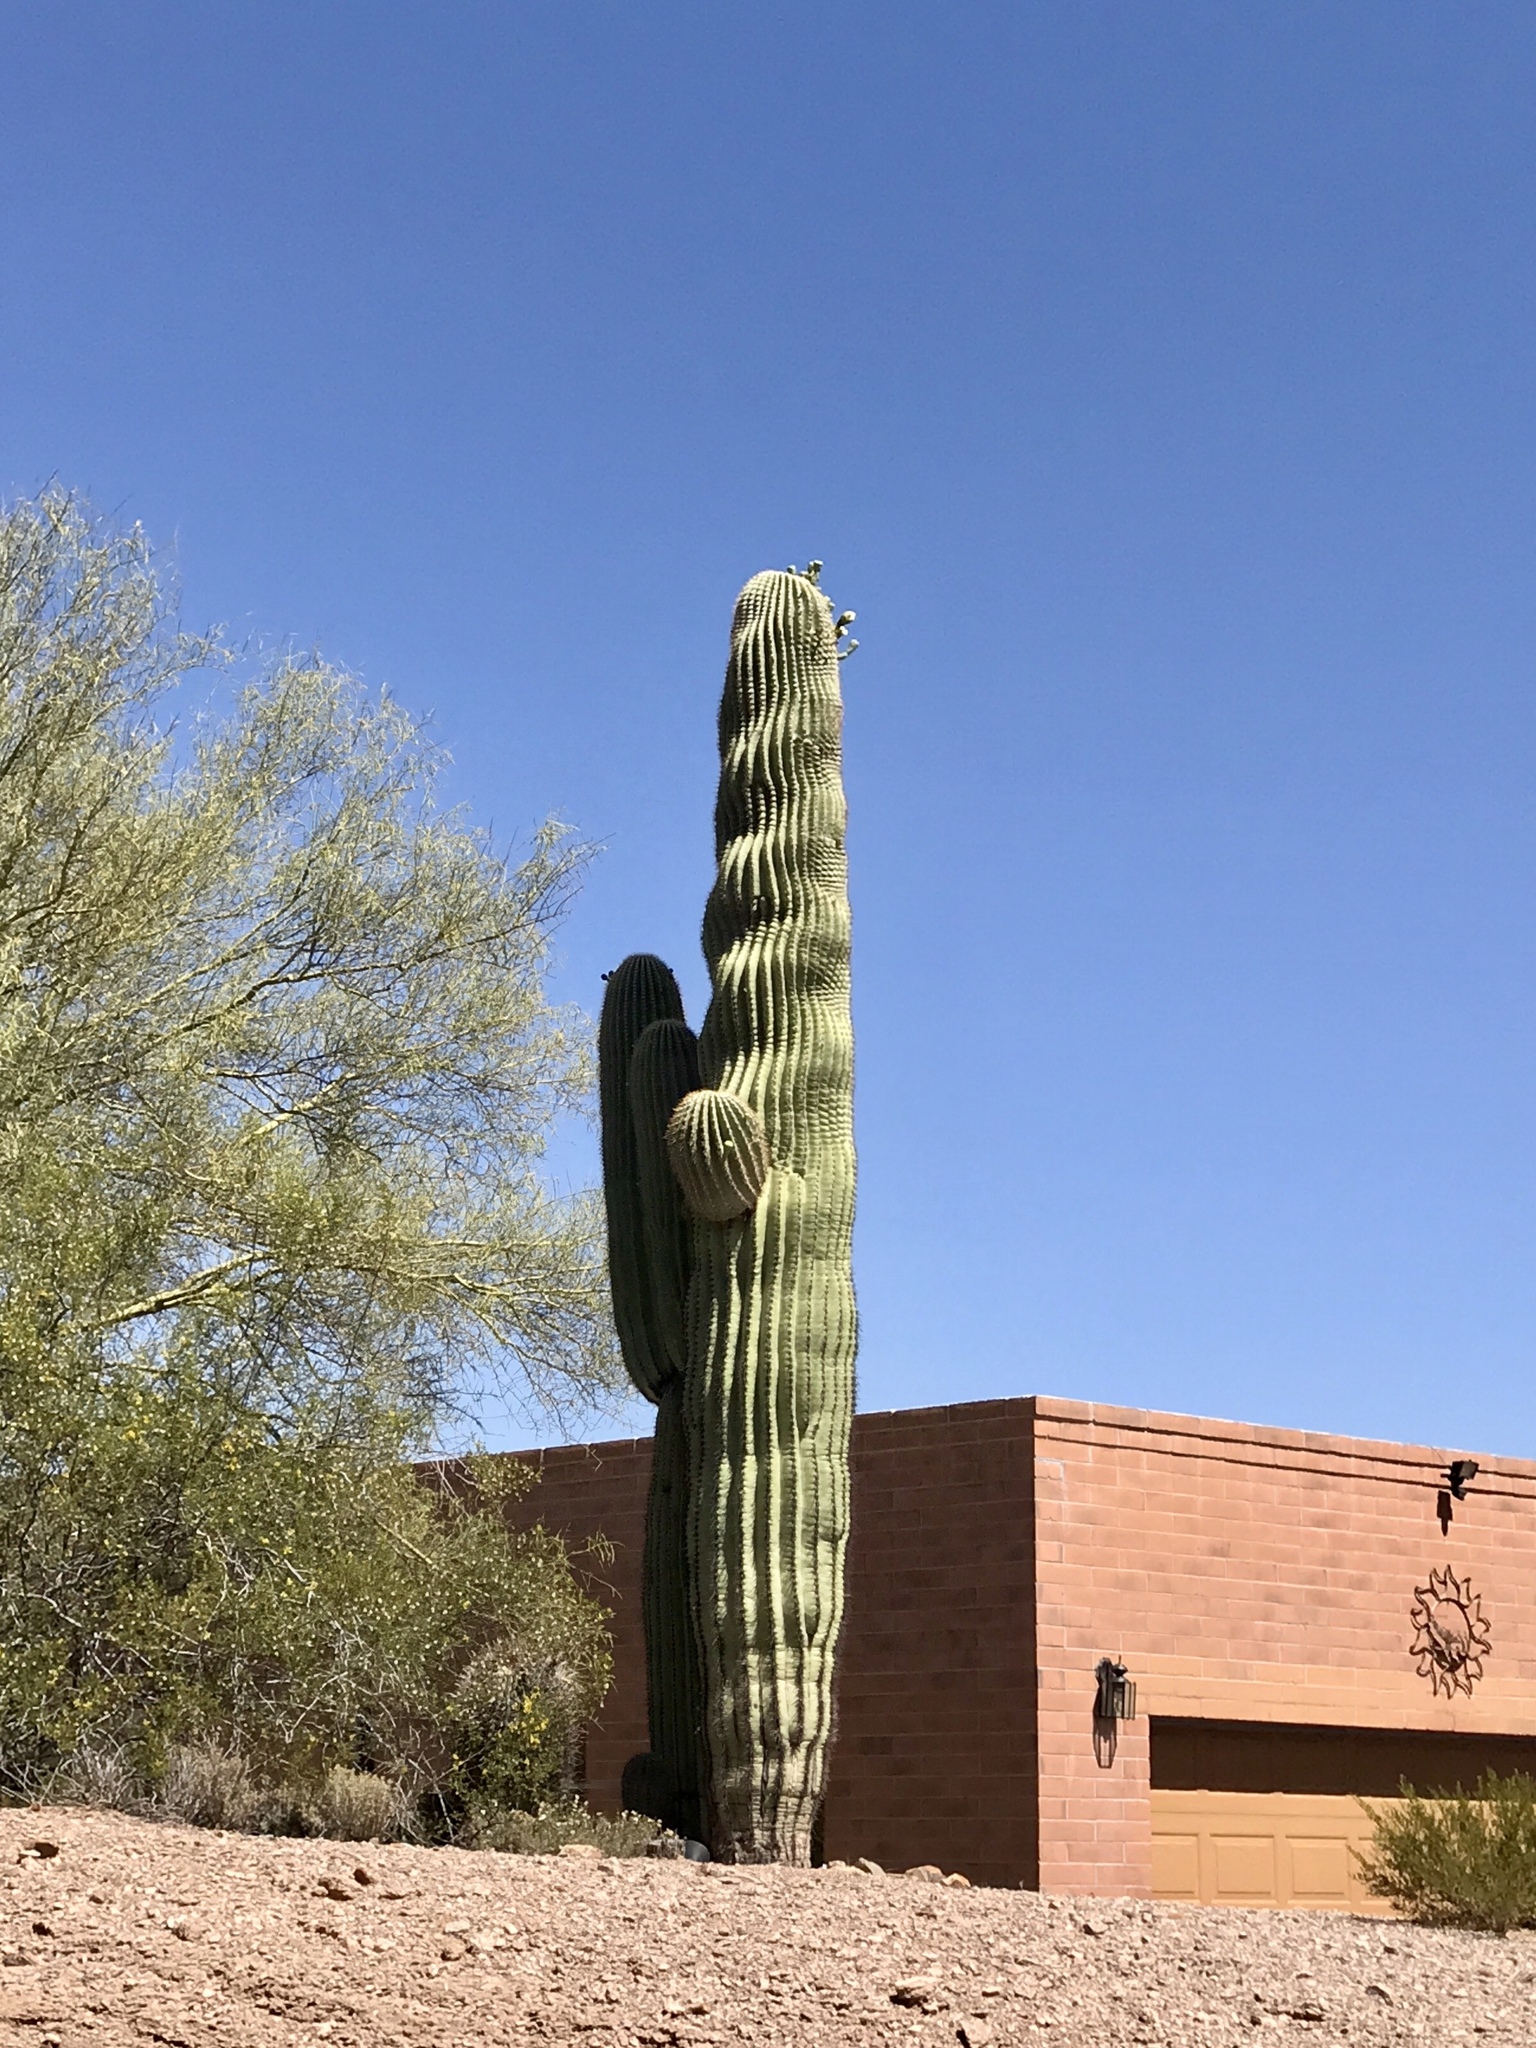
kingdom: Plantae
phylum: Tracheophyta
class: Magnoliopsida
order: Caryophyllales
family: Cactaceae
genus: Carnegiea
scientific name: Carnegiea gigantea
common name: Saguaro
